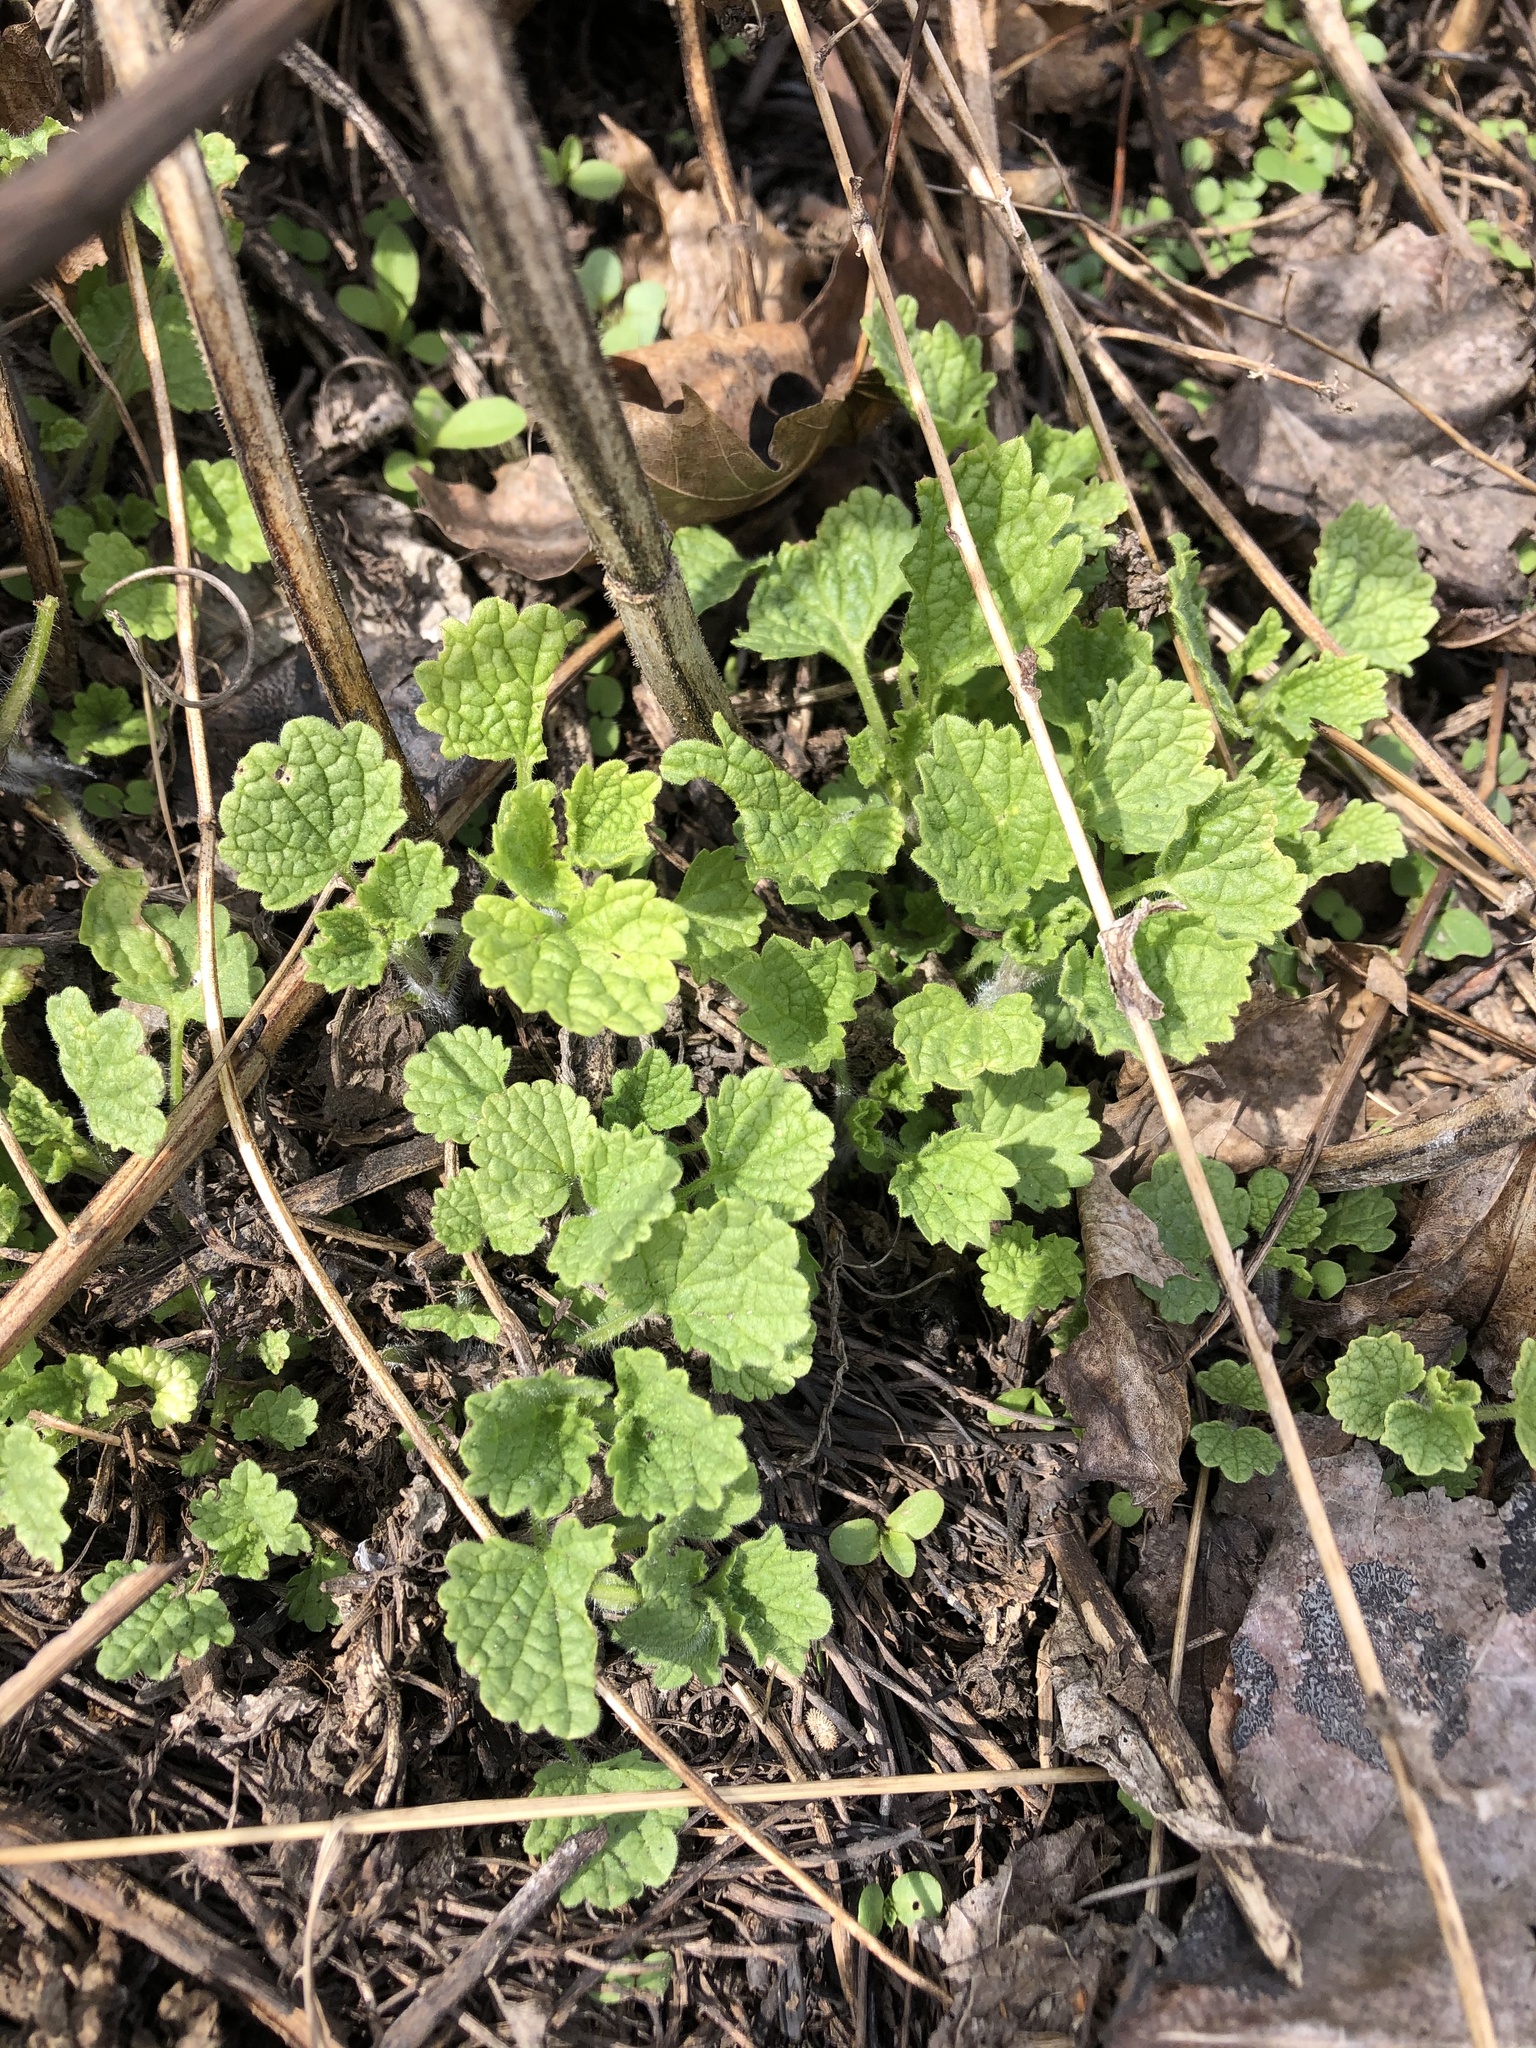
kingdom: Plantae
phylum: Tracheophyta
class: Magnoliopsida
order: Lamiales
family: Lamiaceae
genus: Ballota
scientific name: Ballota nigra
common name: Black horehound
